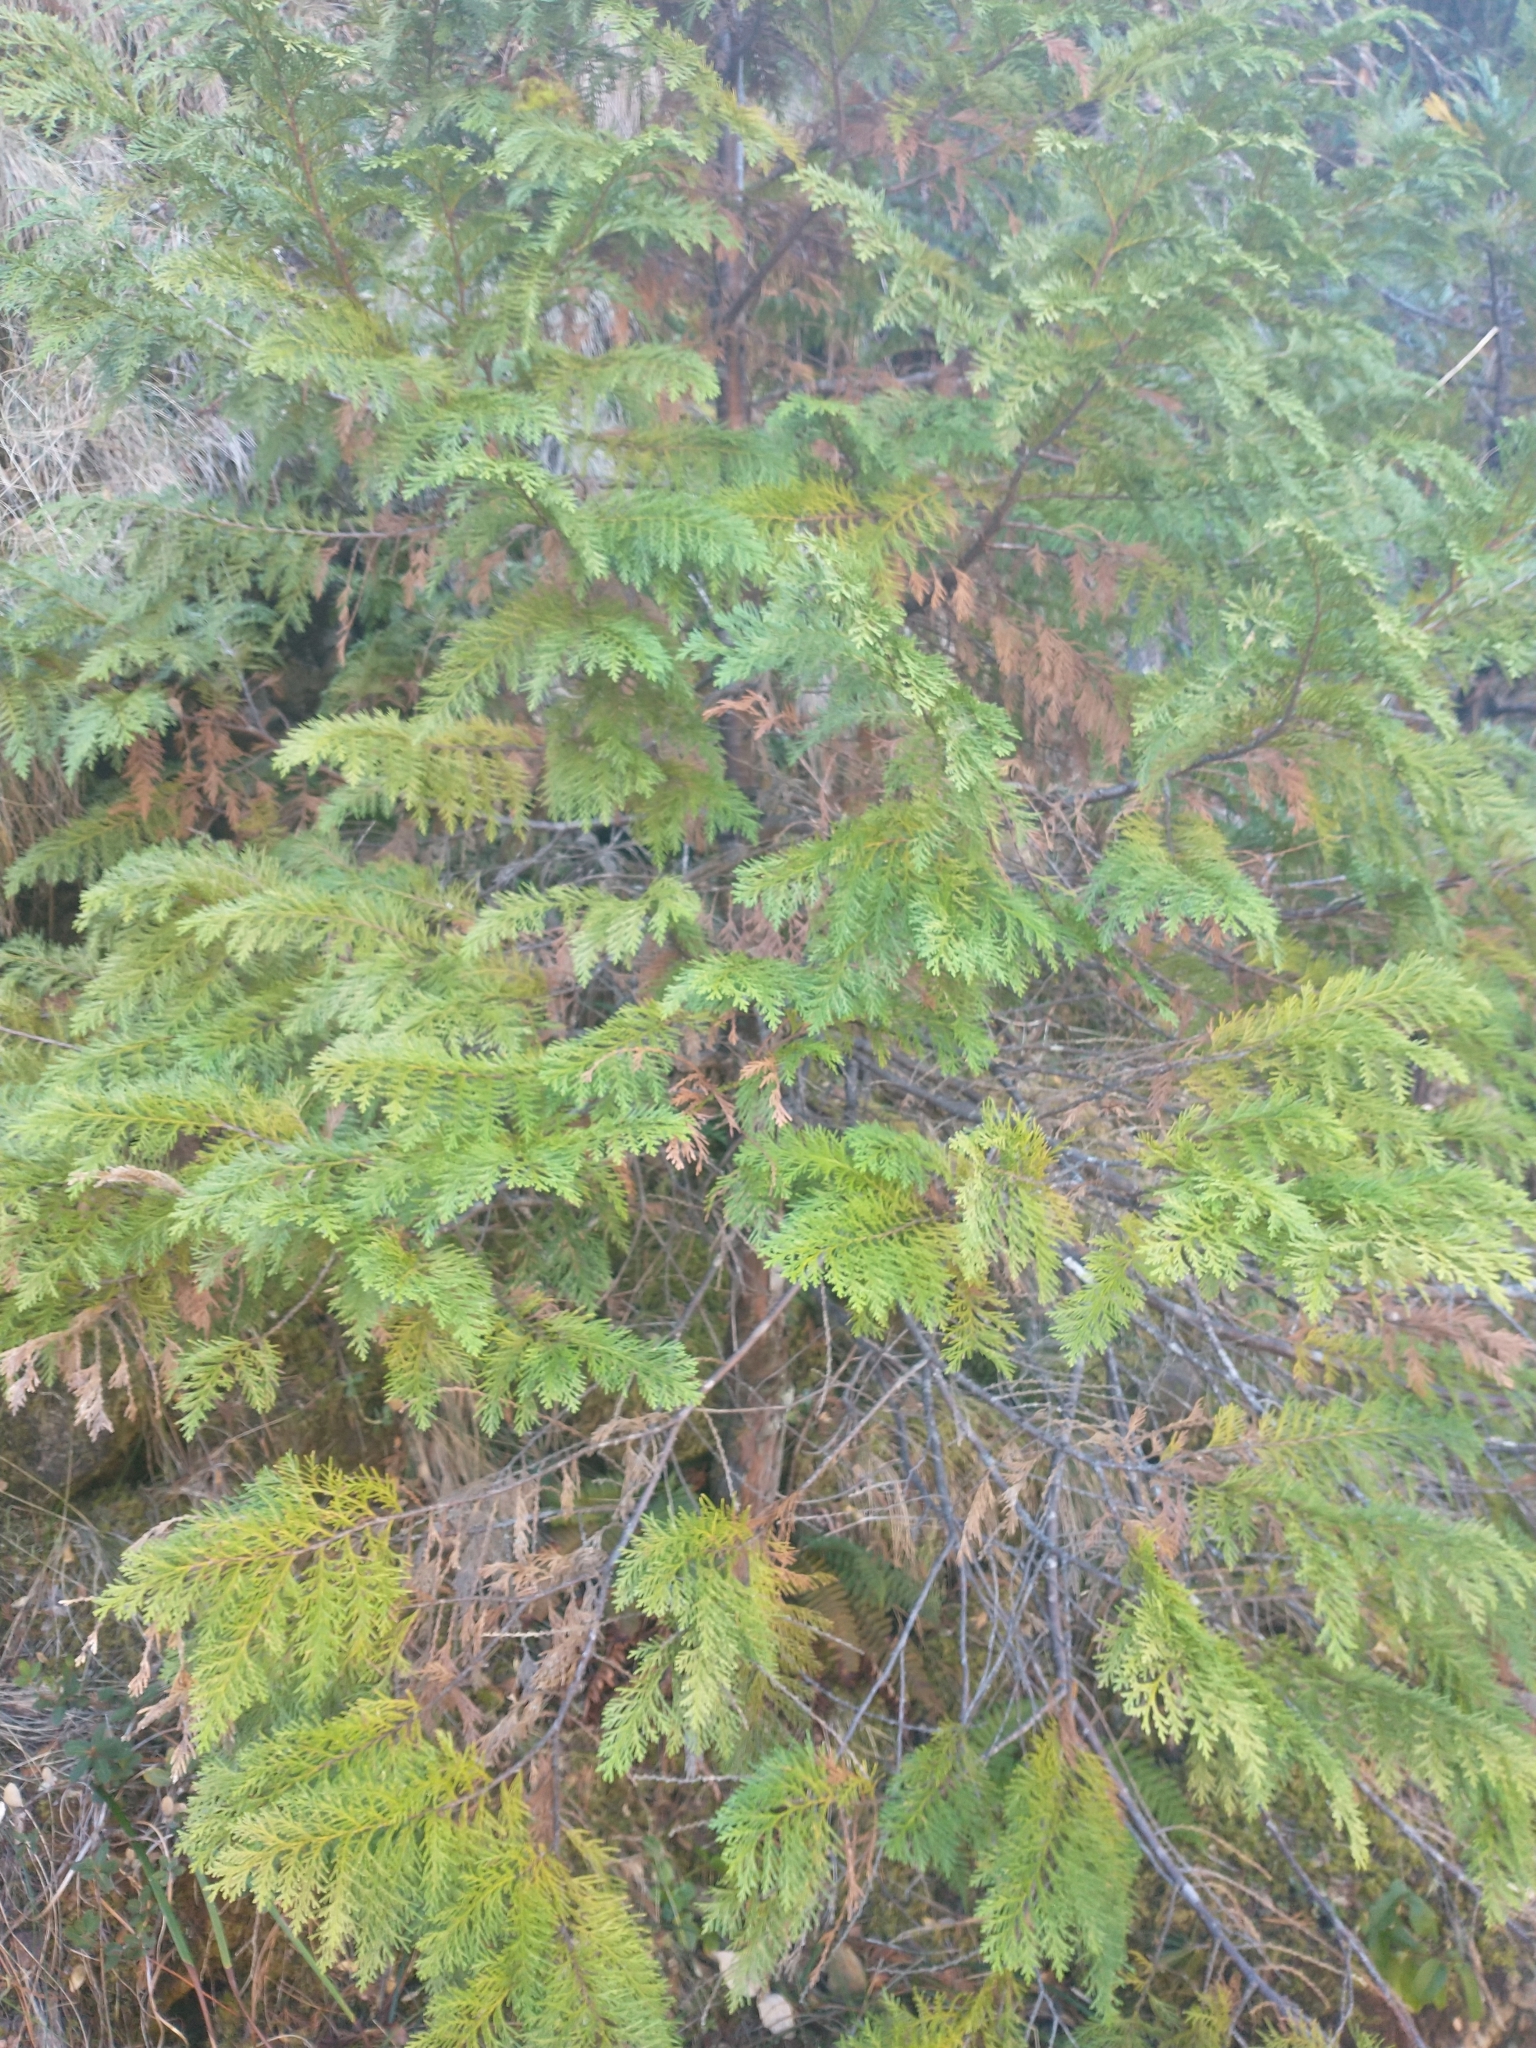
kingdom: Plantae
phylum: Tracheophyta
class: Pinopsida
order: Pinales
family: Cupressaceae
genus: Chamaecyparis
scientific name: Chamaecyparis lawsoniana
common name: Lawson's cypress
